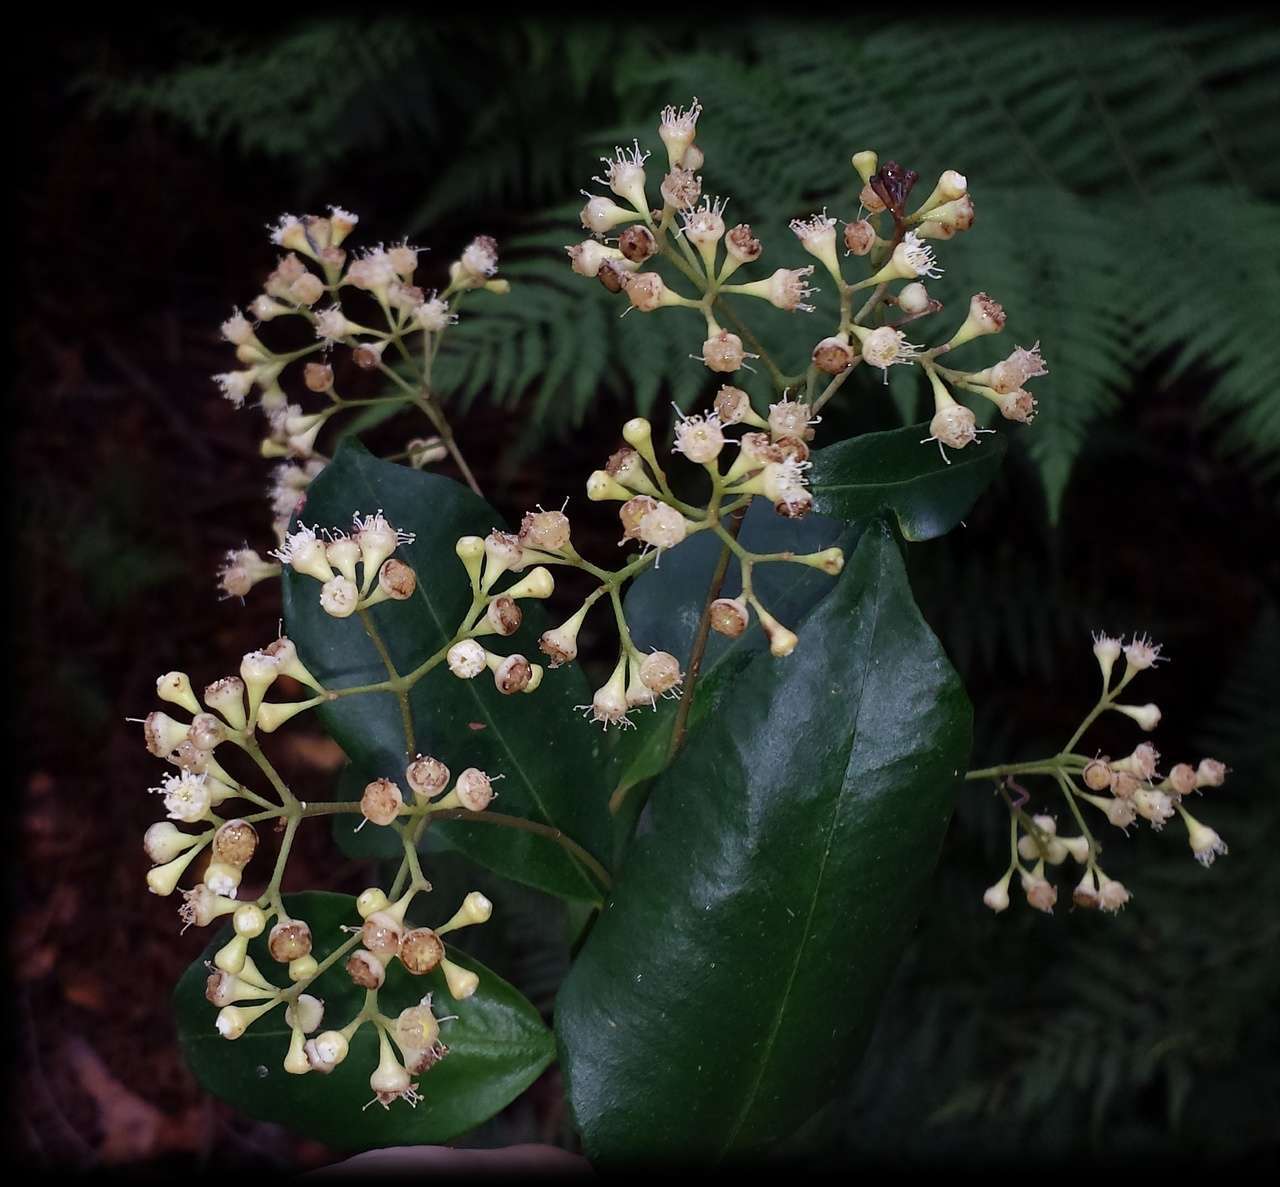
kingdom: Plantae
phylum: Tracheophyta
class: Magnoliopsida
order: Myrtales
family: Myrtaceae
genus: Syzygium
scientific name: Syzygium smithii
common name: Lilly-pilly
